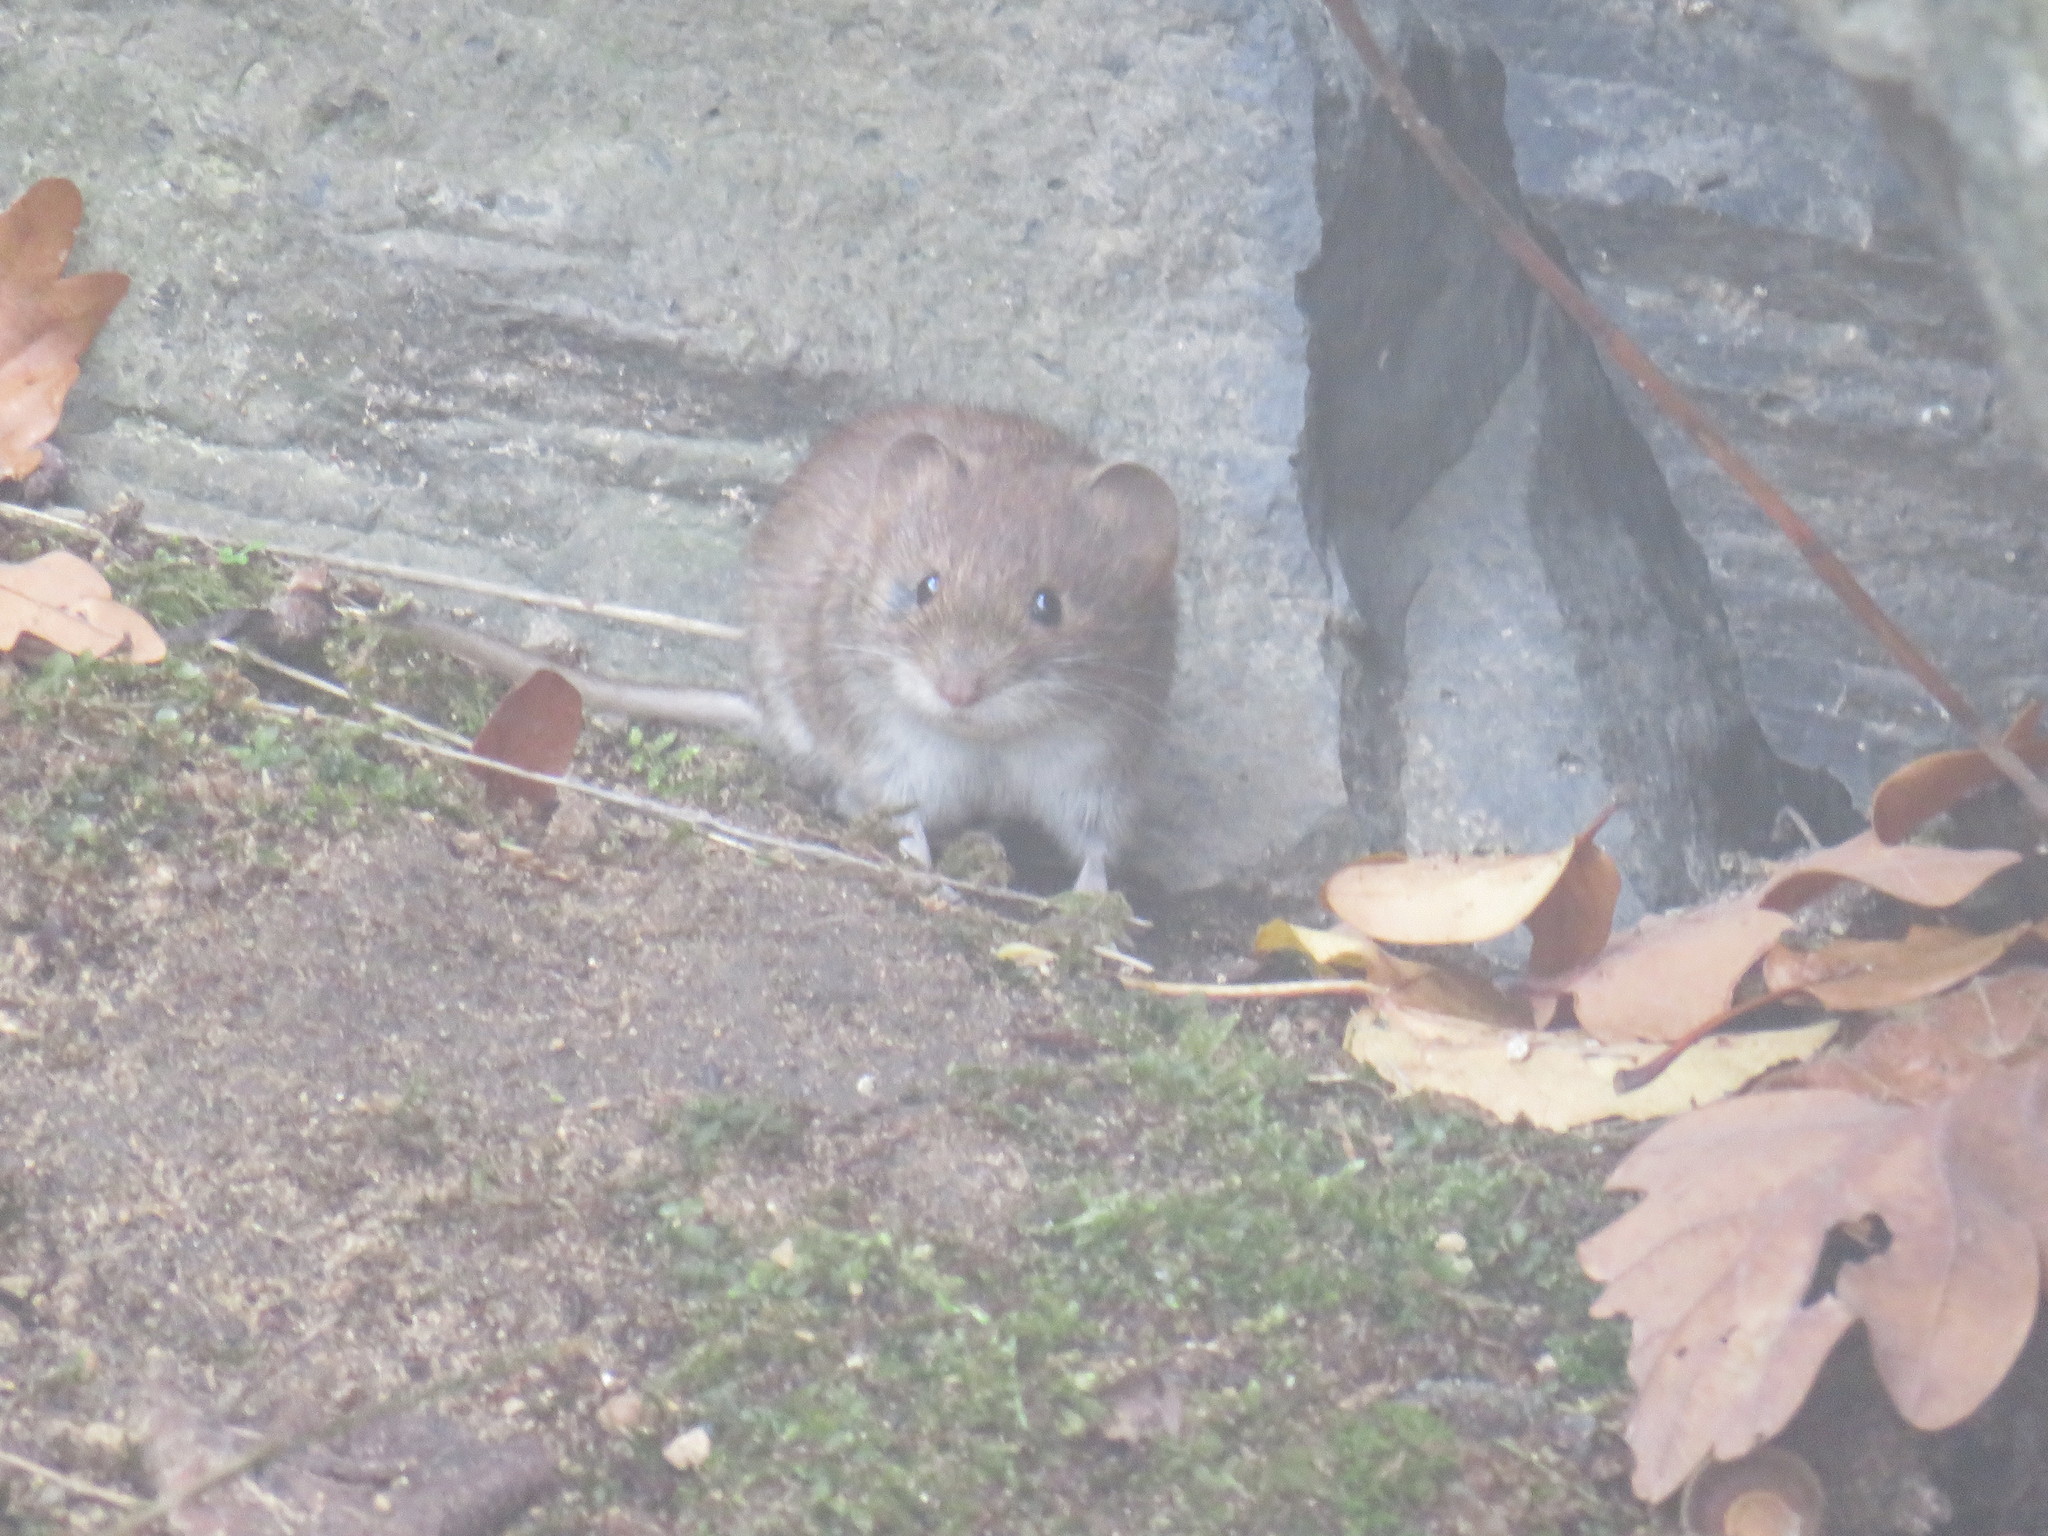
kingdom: Animalia
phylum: Chordata
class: Mammalia
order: Rodentia
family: Cricetidae
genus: Myodes
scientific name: Myodes glareolus
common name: Bank vole
